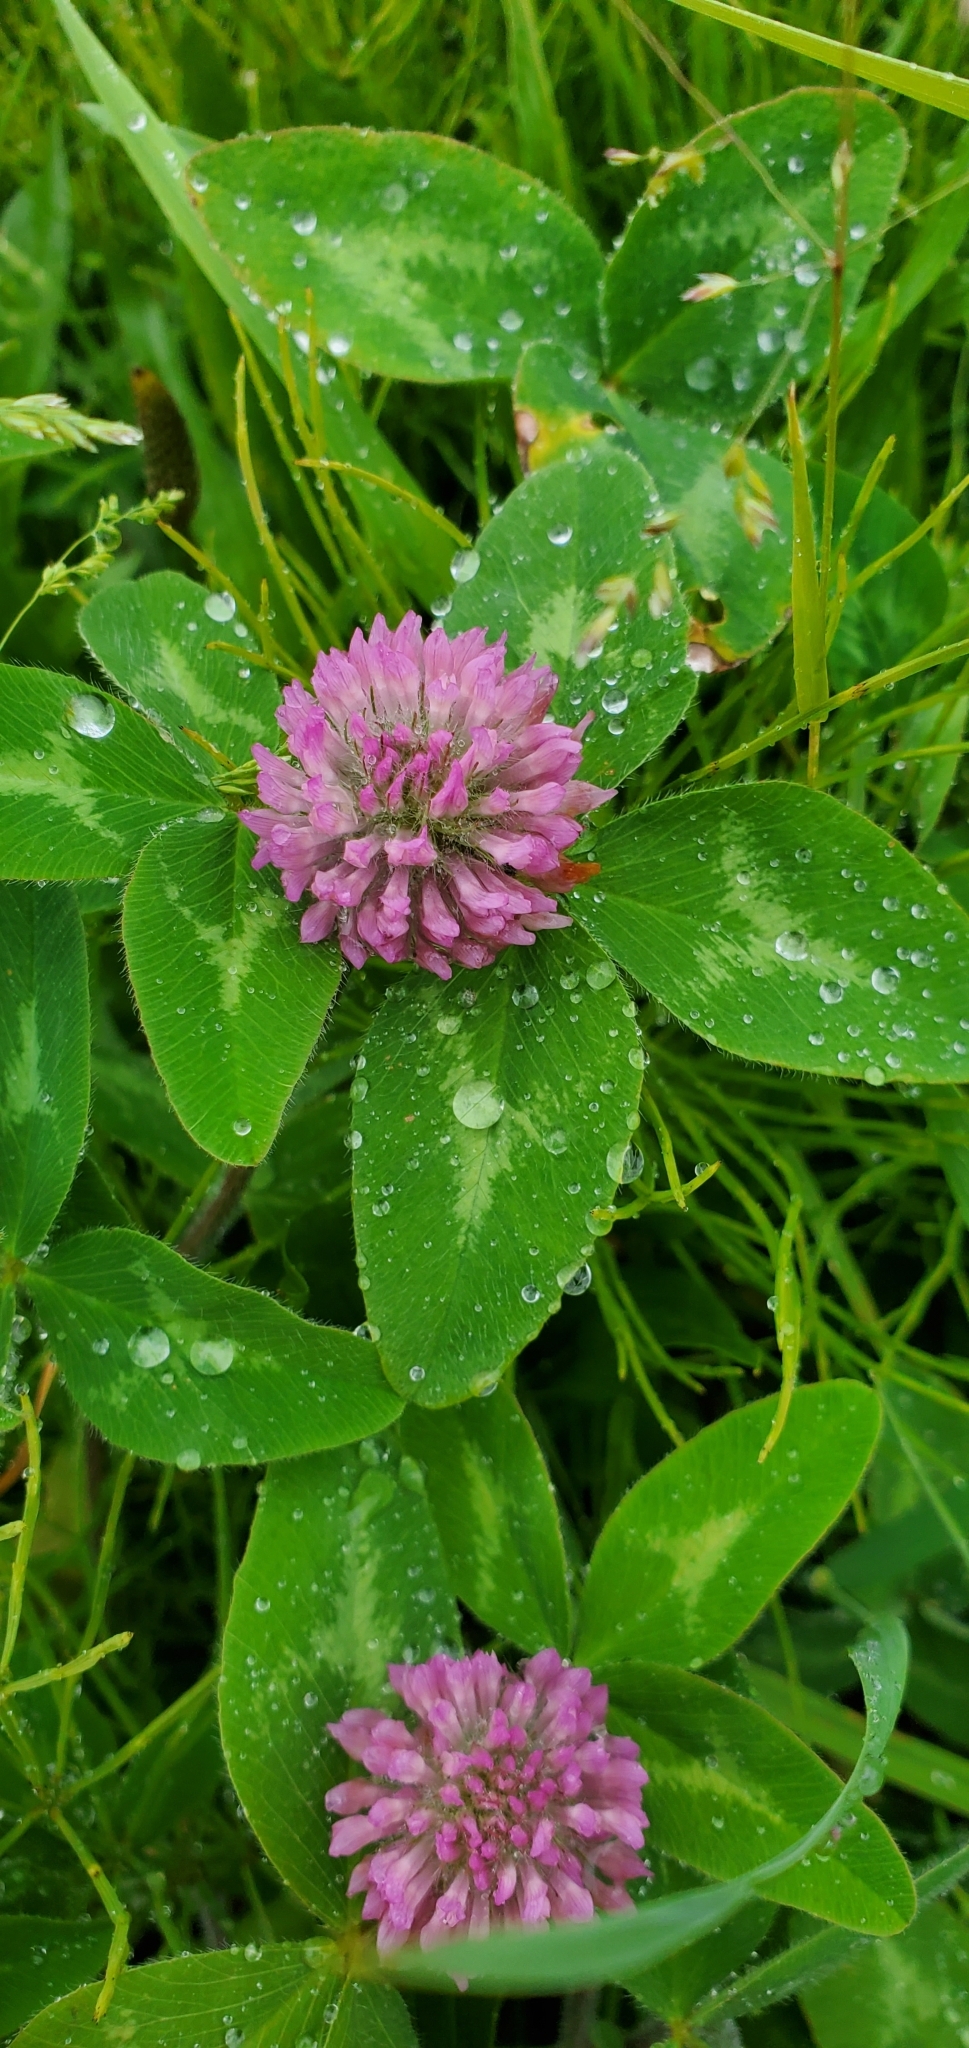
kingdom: Plantae
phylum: Tracheophyta
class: Magnoliopsida
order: Fabales
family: Fabaceae
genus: Trifolium
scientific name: Trifolium pratense
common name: Red clover
